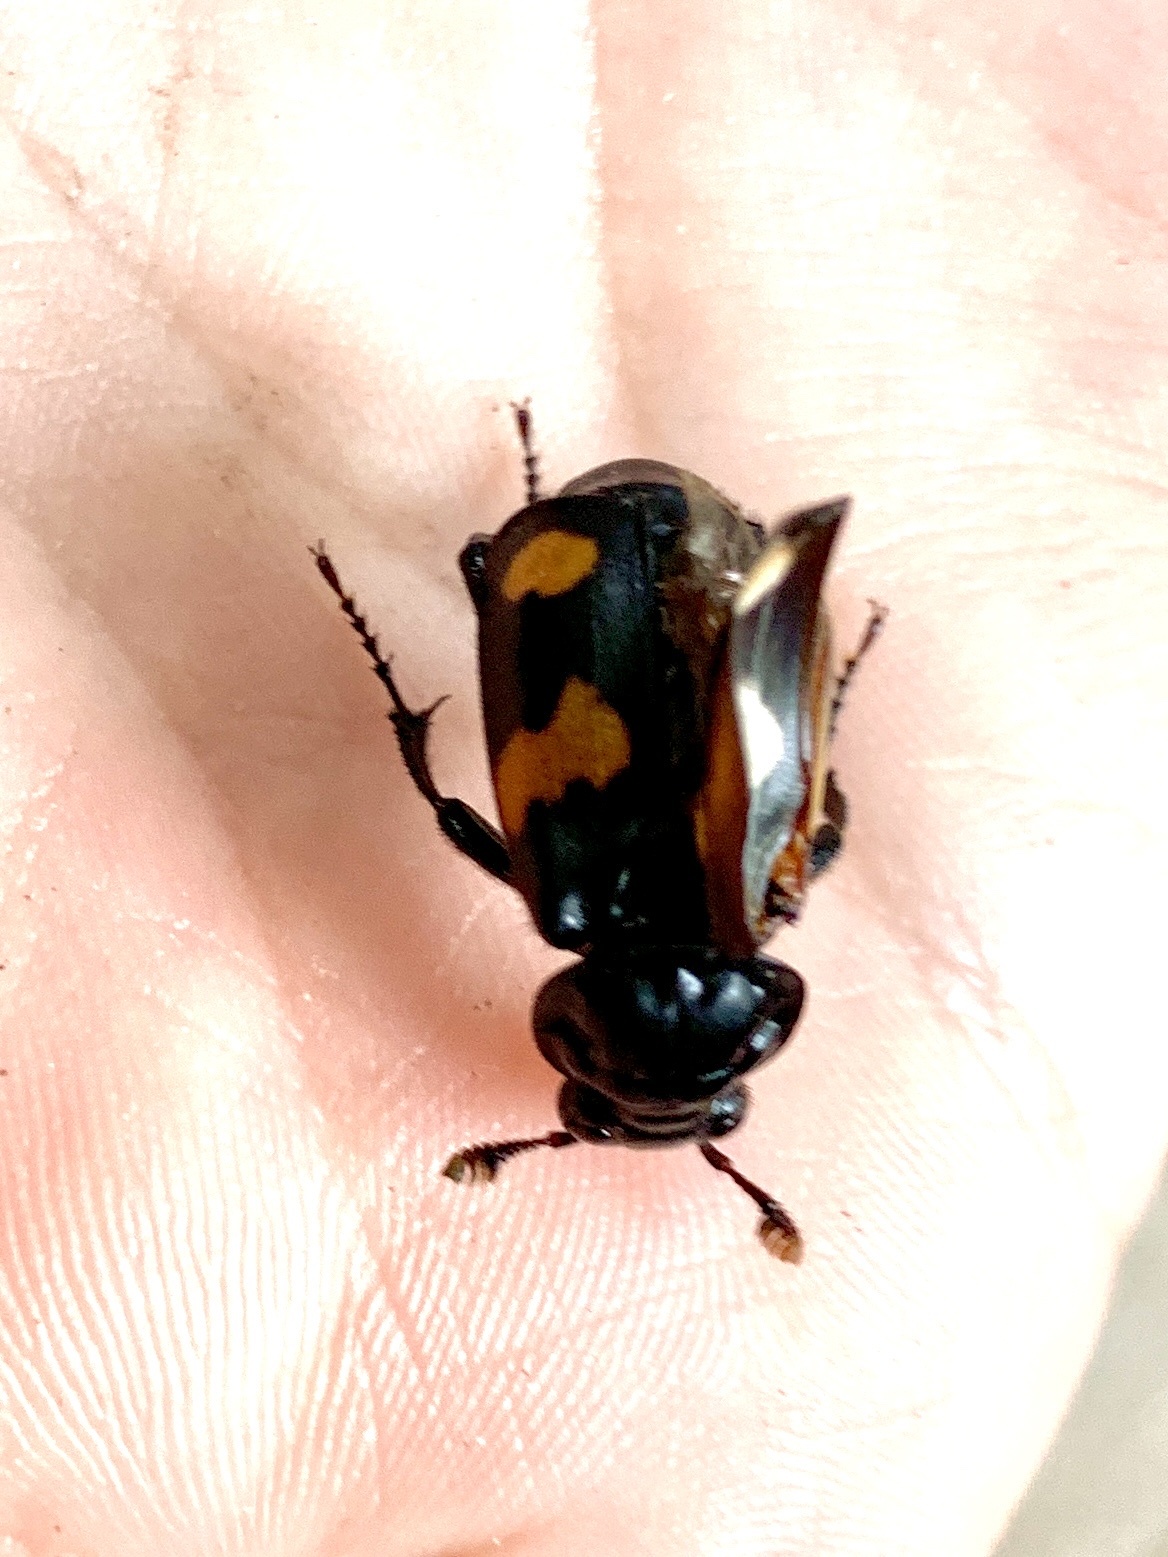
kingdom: Animalia
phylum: Arthropoda
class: Insecta
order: Coleoptera
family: Staphylinidae
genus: Nicrophorus
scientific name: Nicrophorus orbicollis
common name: Roundneck sexton beetle
